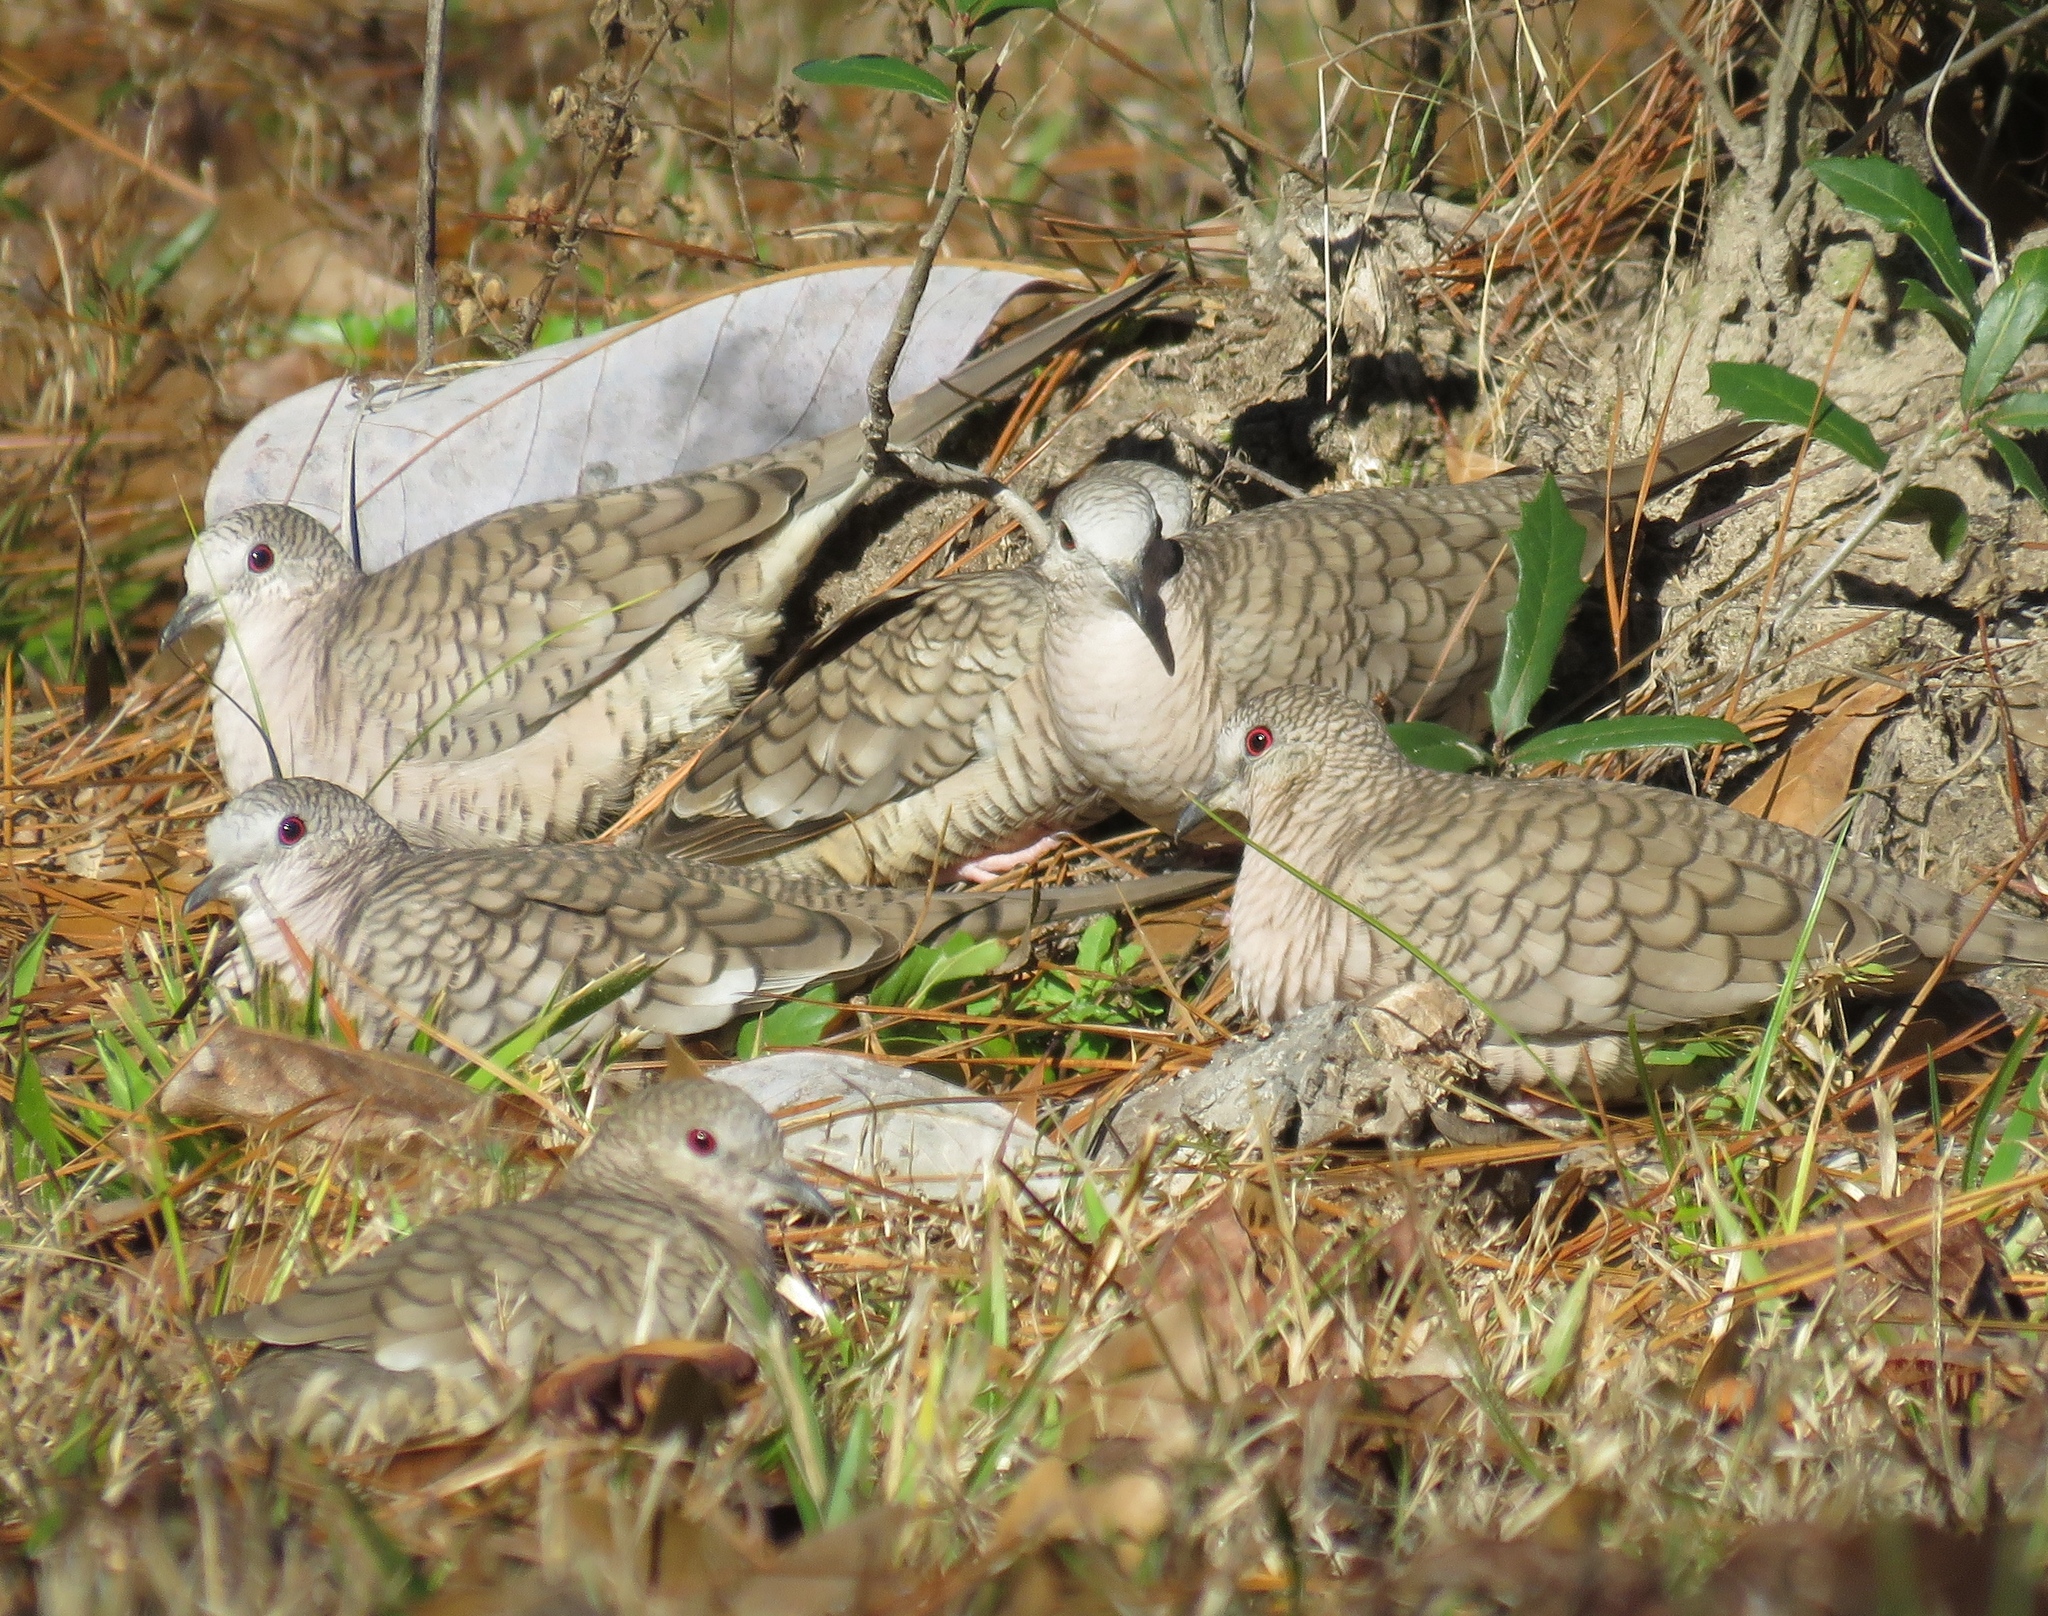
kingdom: Animalia
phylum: Chordata
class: Aves
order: Columbiformes
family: Columbidae
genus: Columbina
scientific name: Columbina inca
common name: Inca dove
